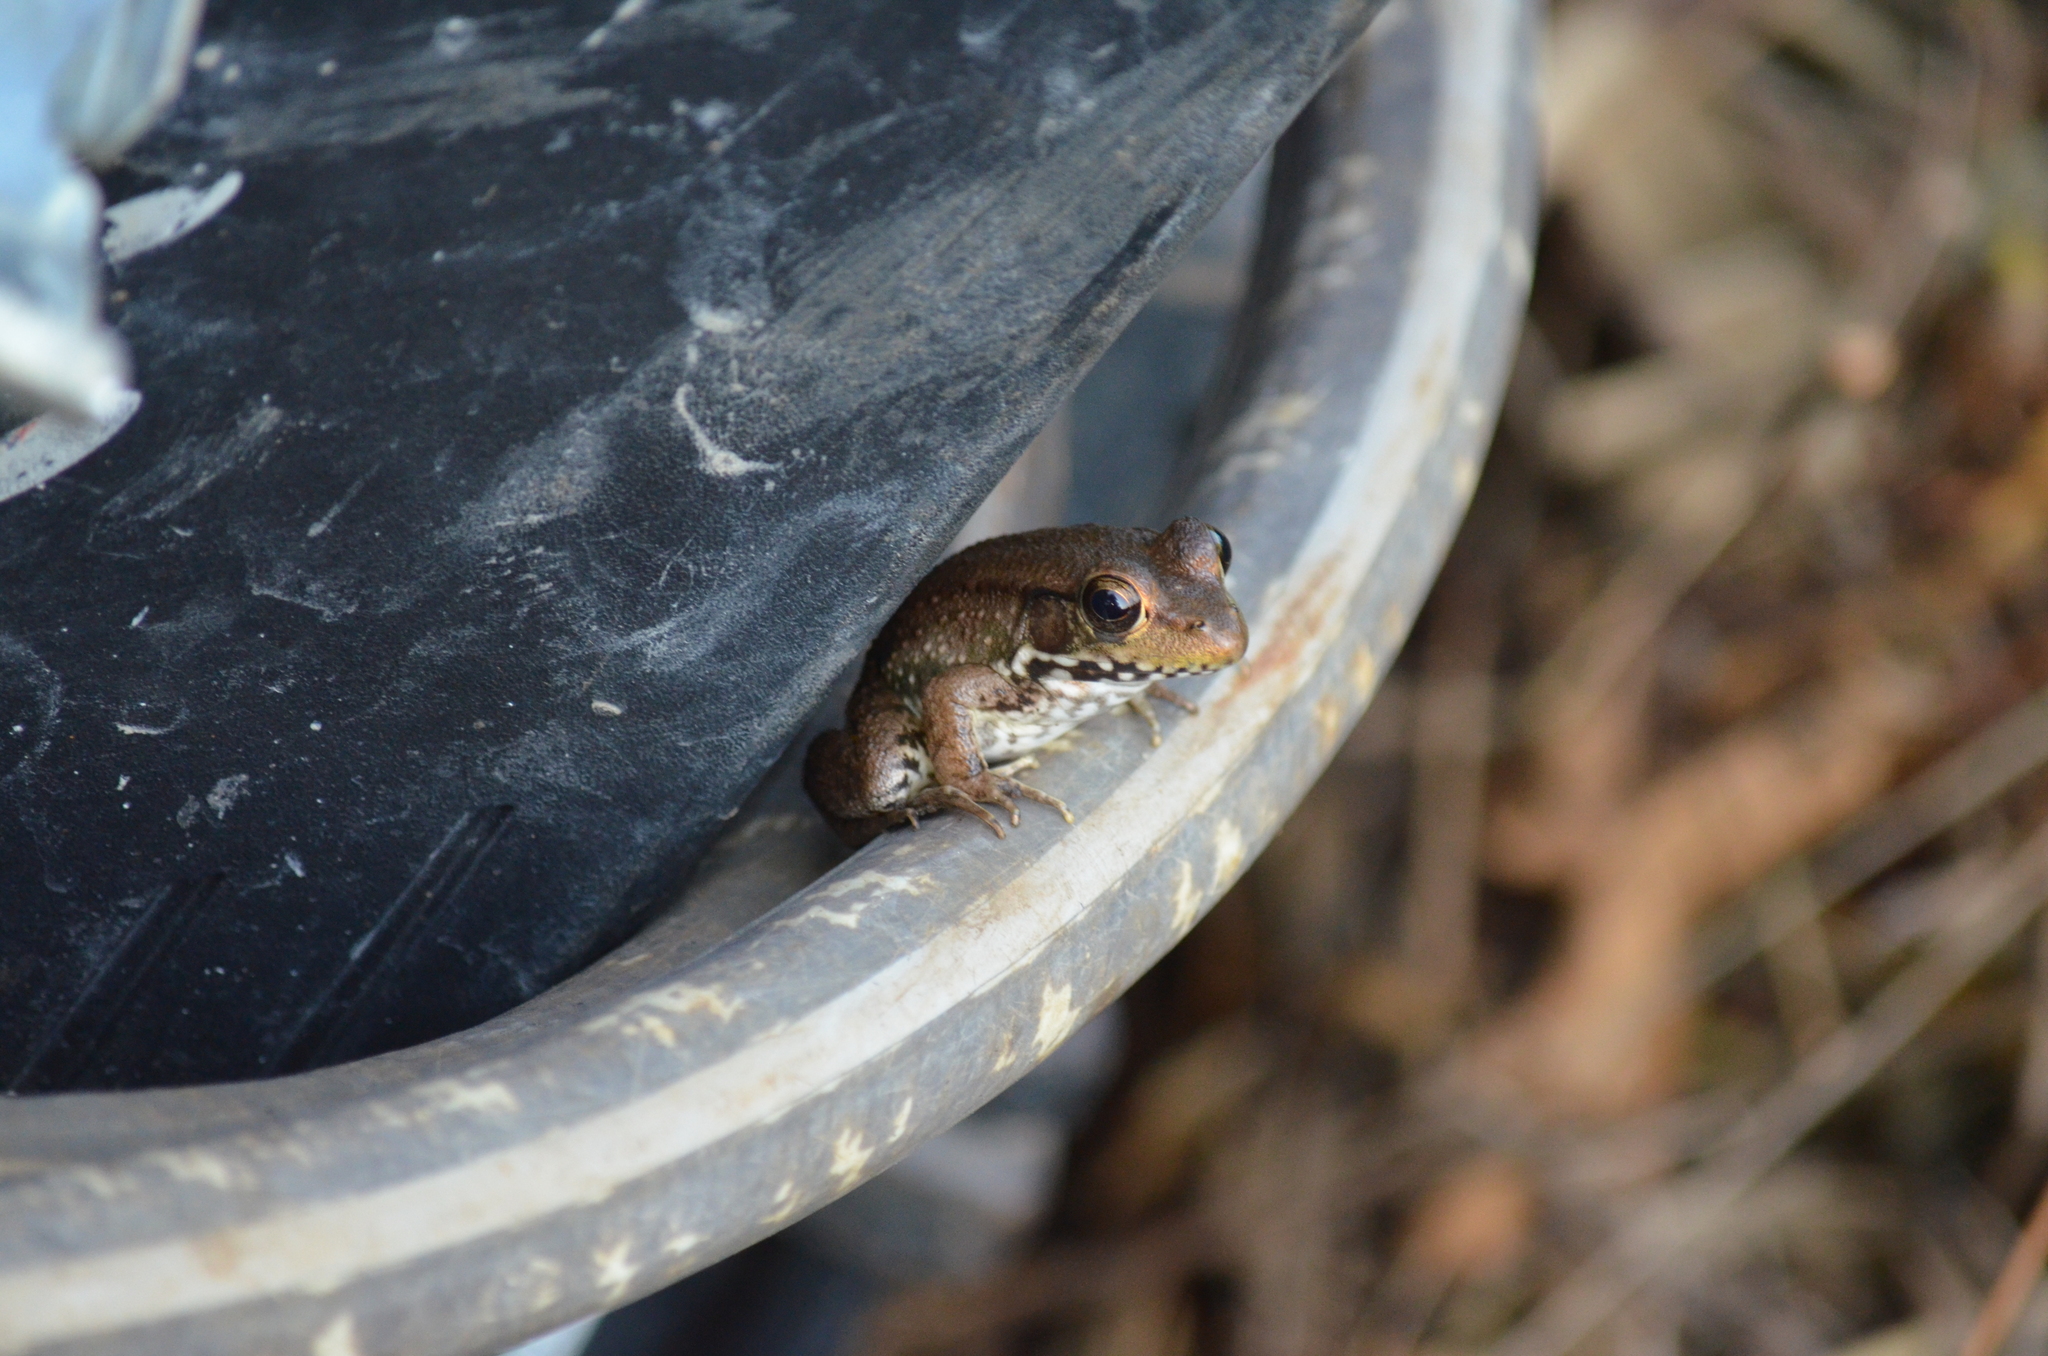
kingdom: Animalia
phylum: Chordata
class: Amphibia
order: Anura
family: Ranidae
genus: Lithobates
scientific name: Lithobates clamitans
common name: Green frog
